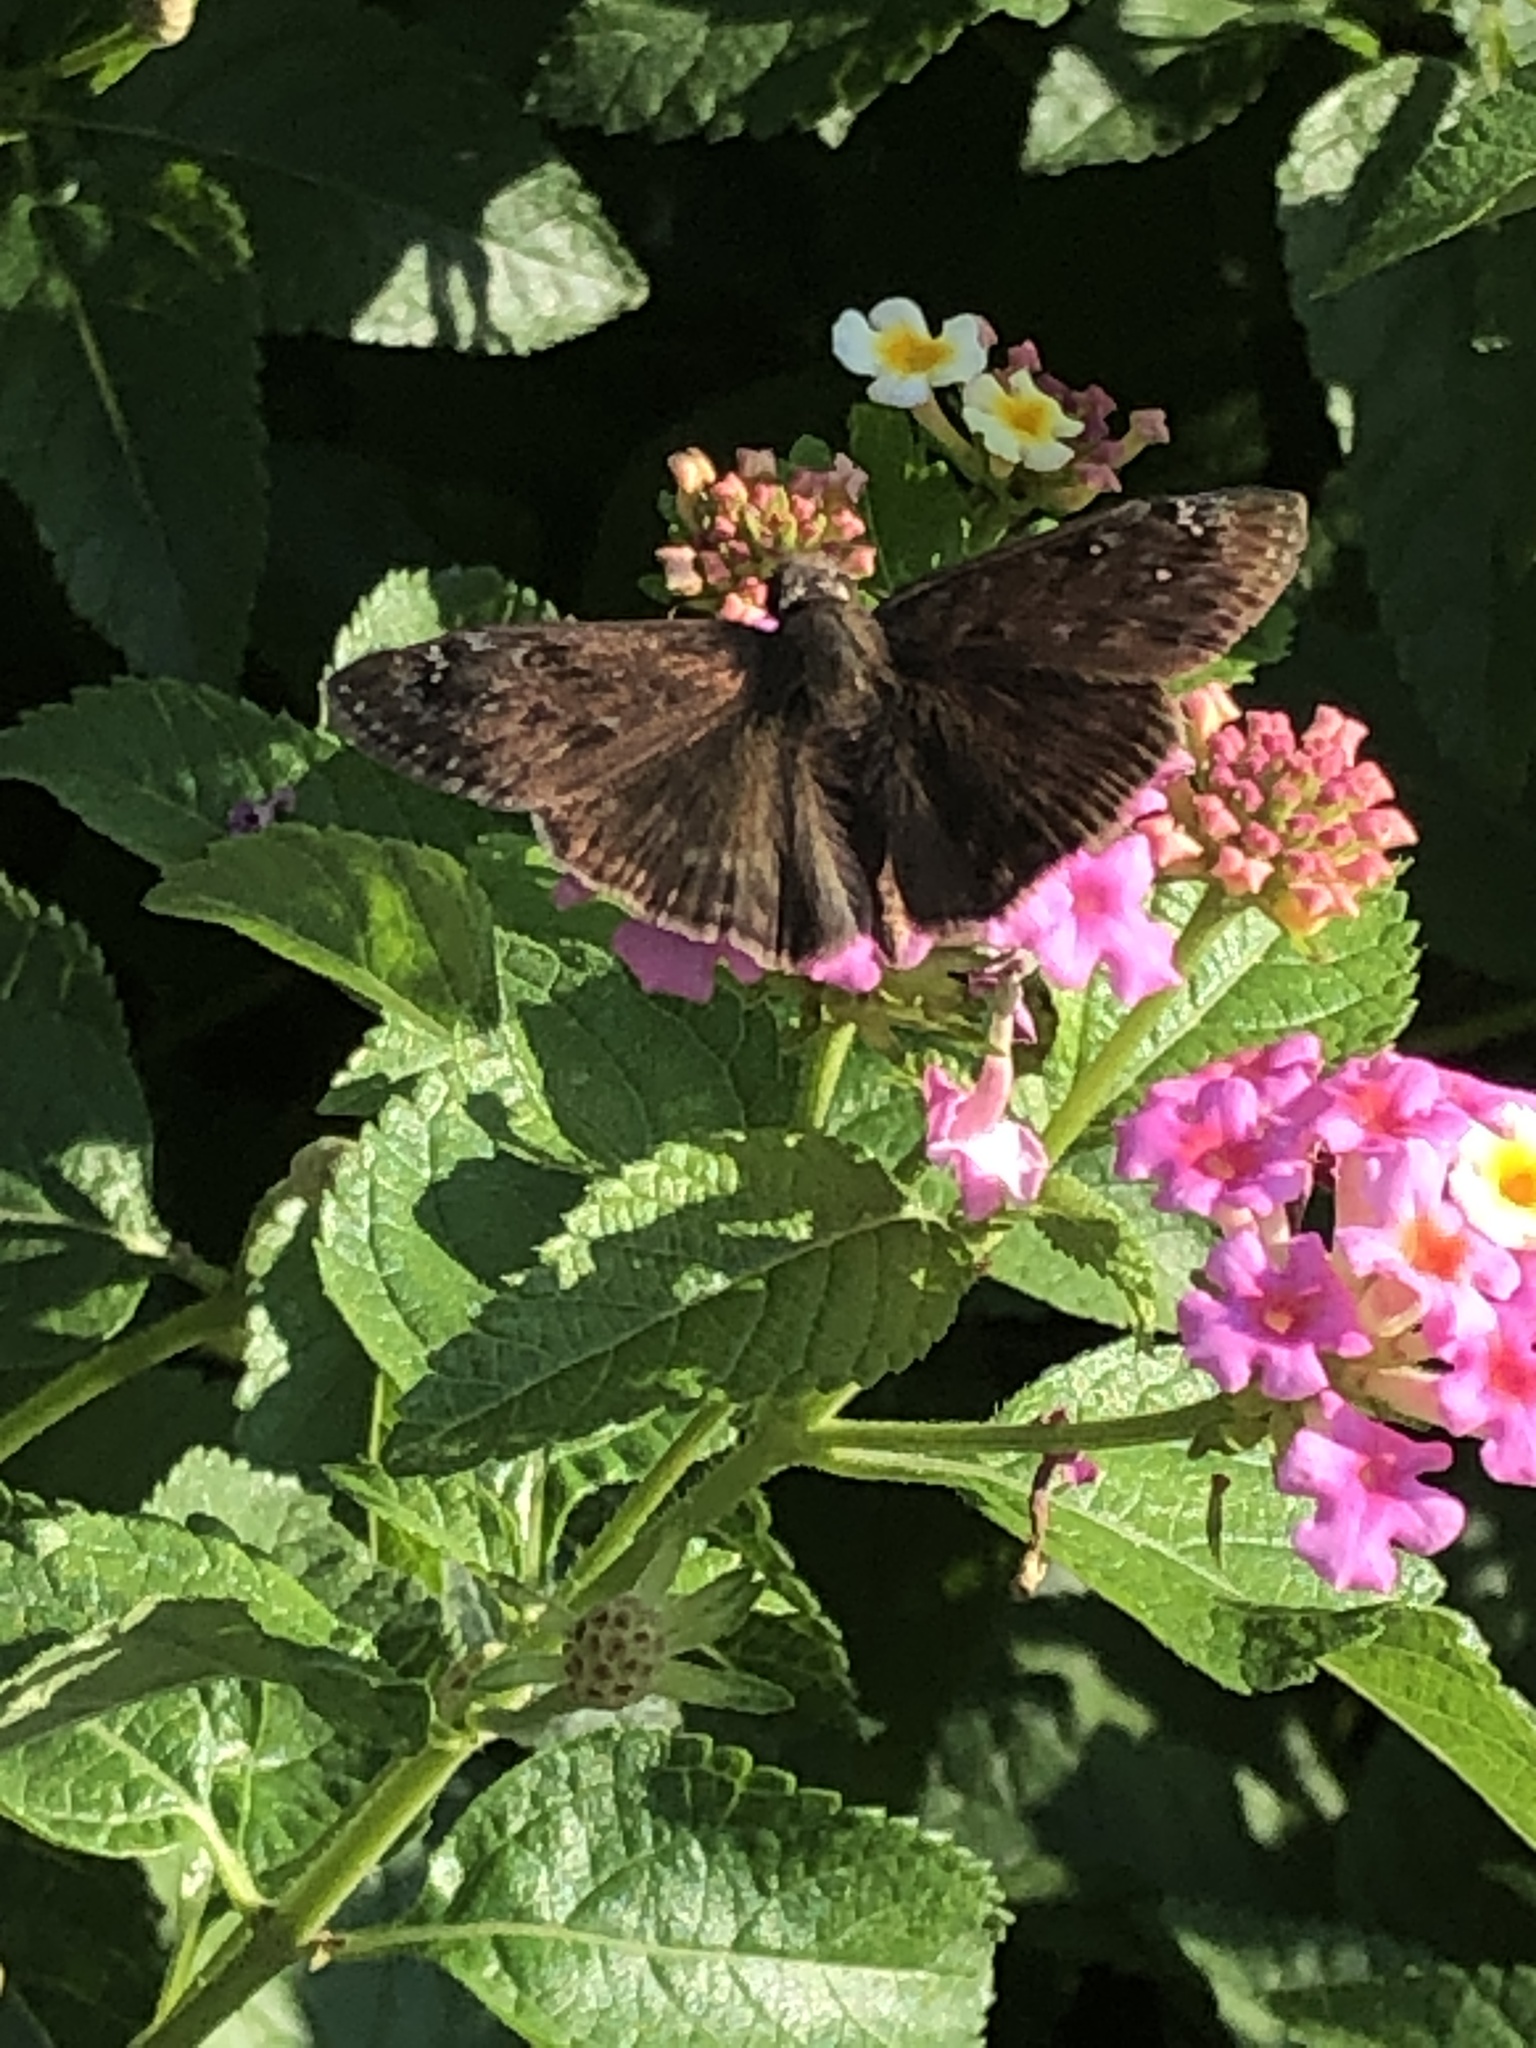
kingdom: Animalia
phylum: Arthropoda
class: Insecta
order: Lepidoptera
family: Hesperiidae
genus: Erynnis
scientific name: Erynnis horatius
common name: Horace's duskywing
